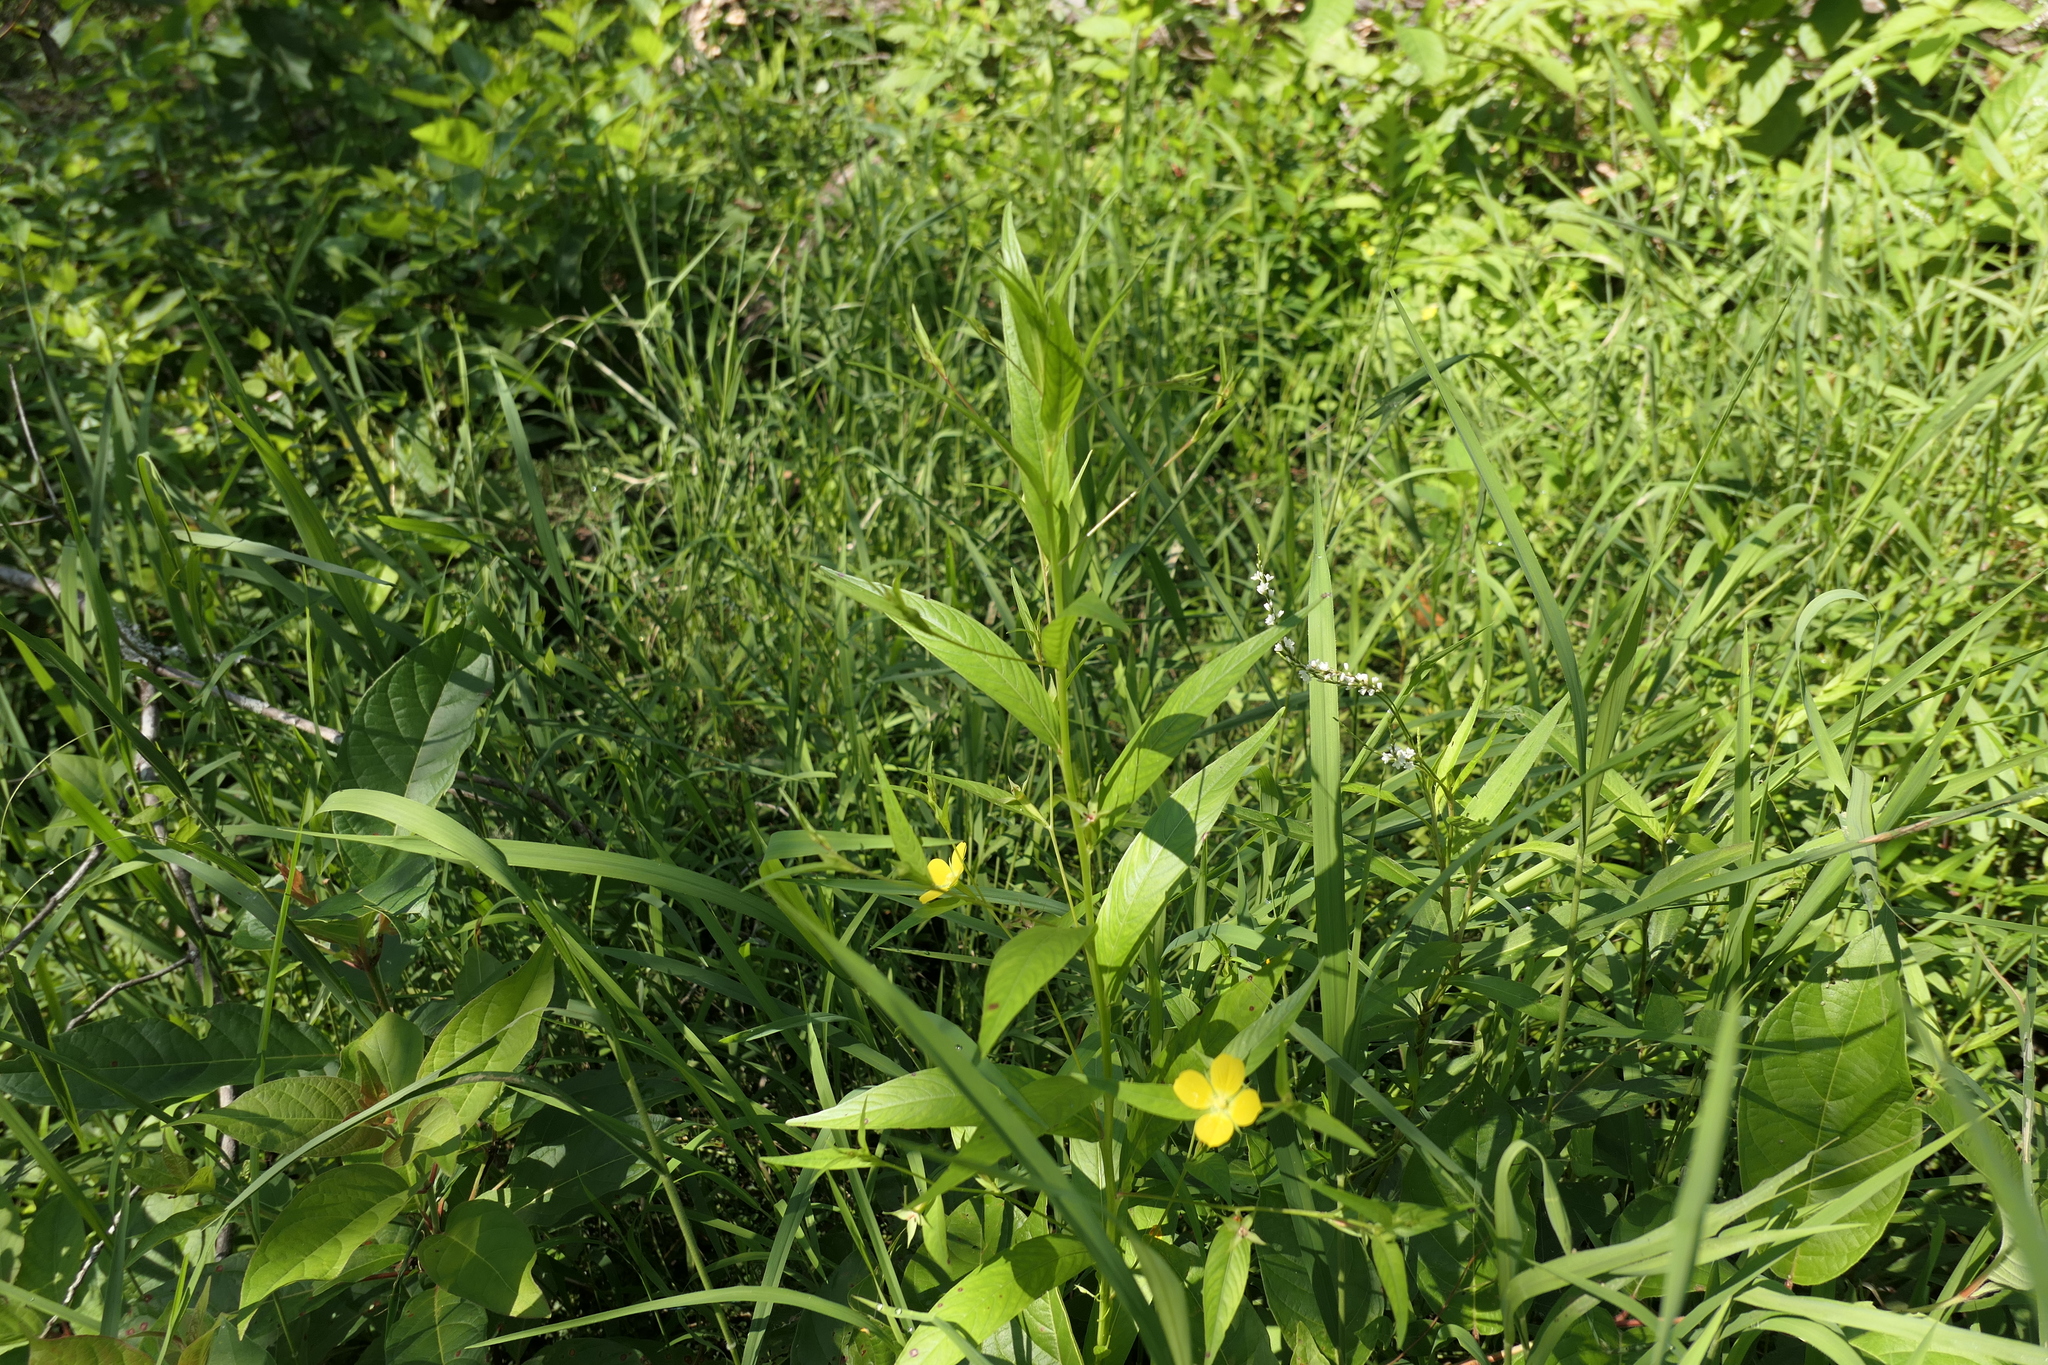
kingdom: Plantae
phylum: Tracheophyta
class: Magnoliopsida
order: Myrtales
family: Onagraceae
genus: Ludwigia
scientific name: Ludwigia alternifolia
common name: Rattlebox
